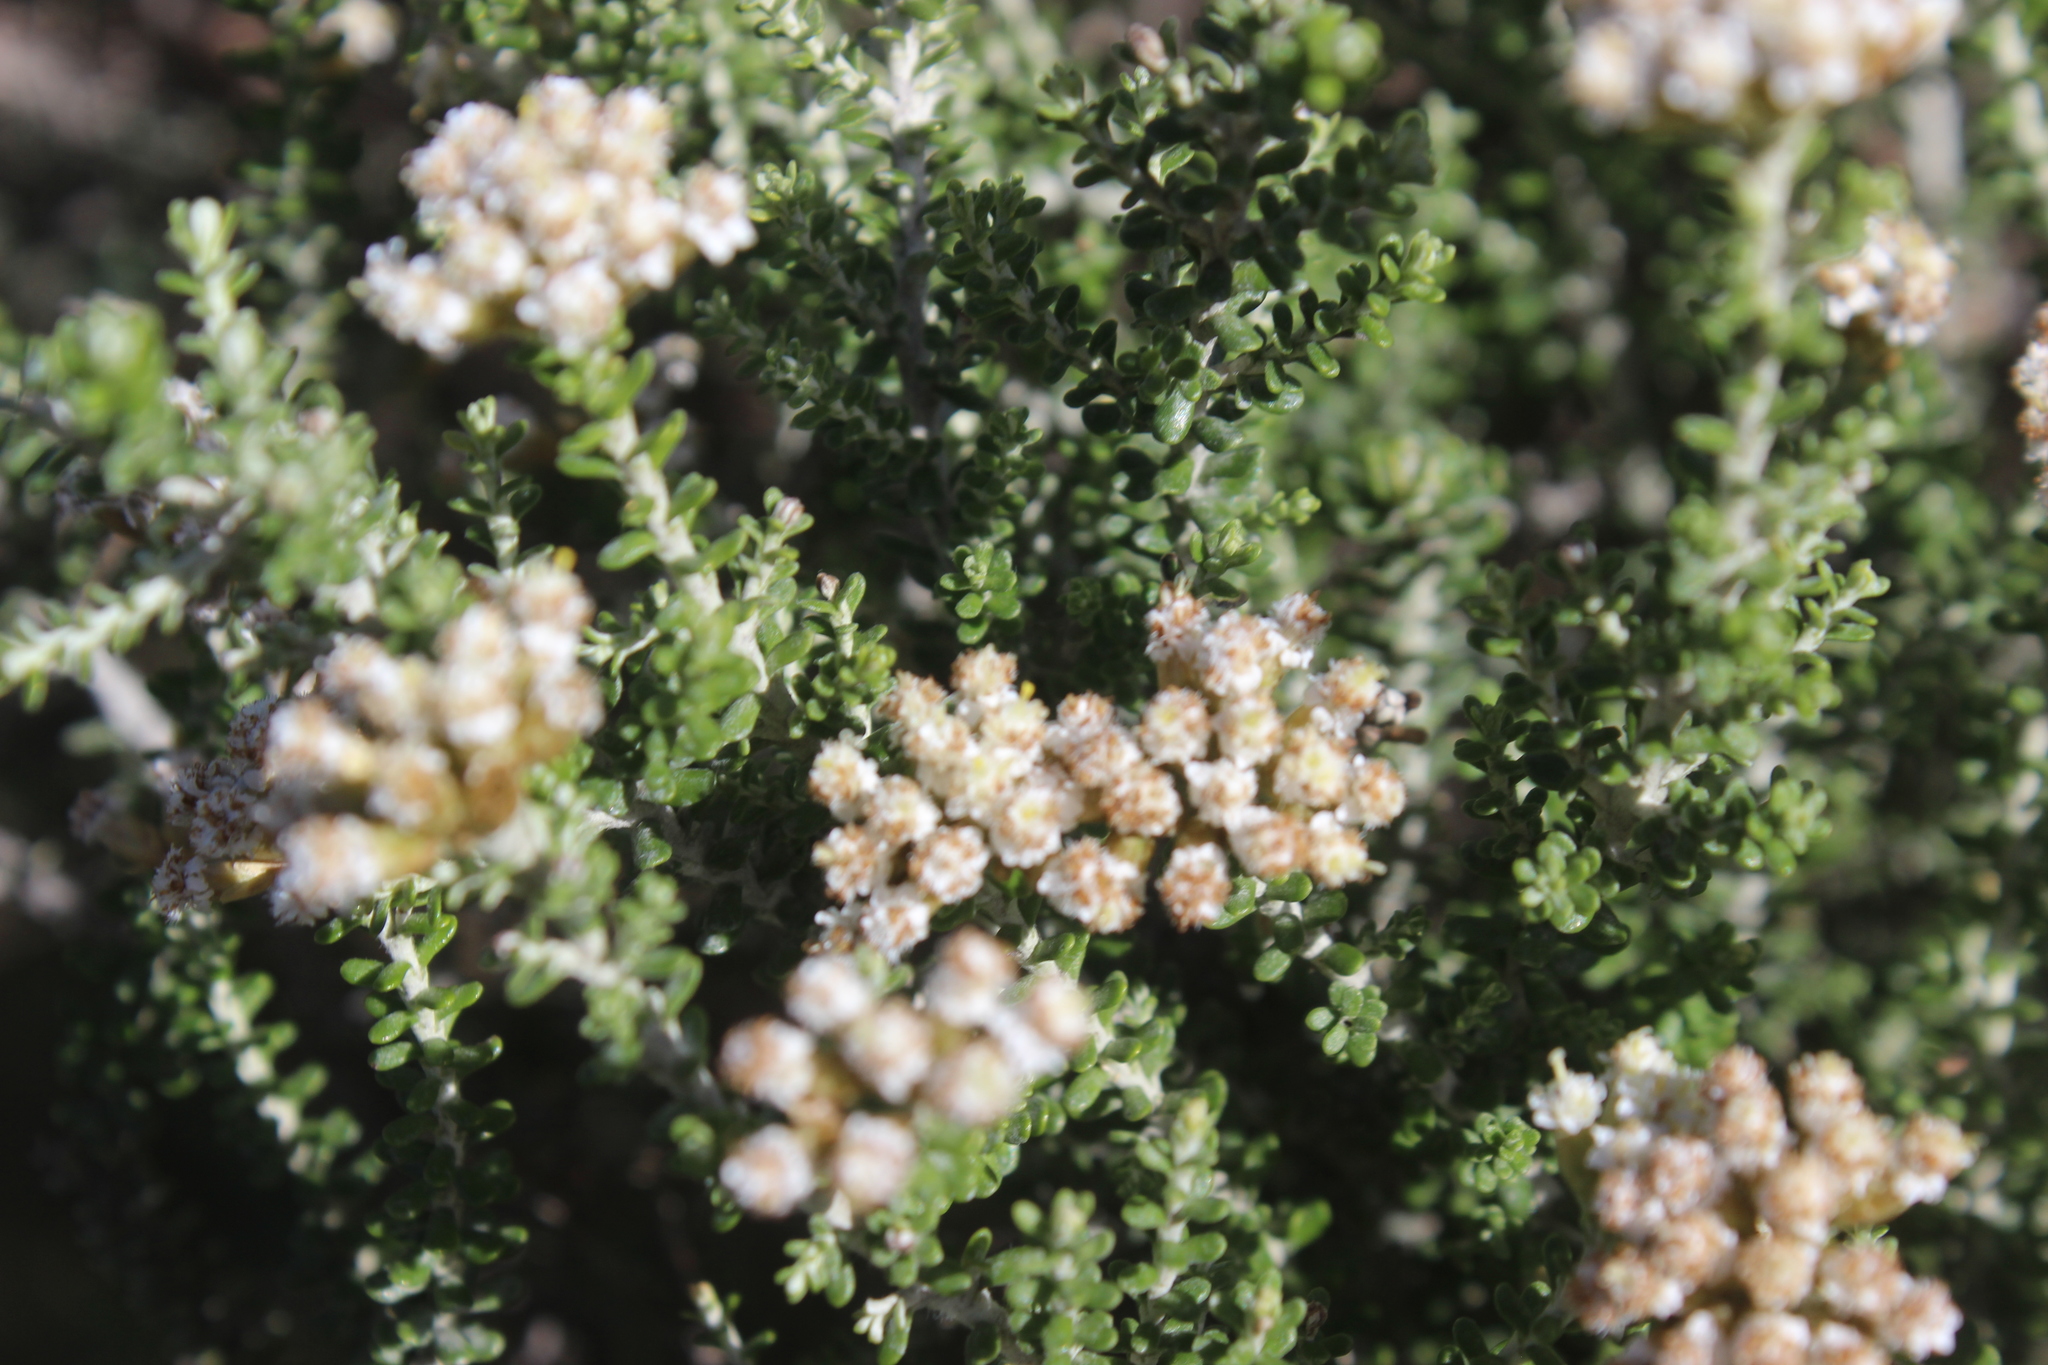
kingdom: Plantae
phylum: Tracheophyta
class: Magnoliopsida
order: Asterales
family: Asteraceae
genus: Ozothamnus
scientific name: Ozothamnus leptophyllus
